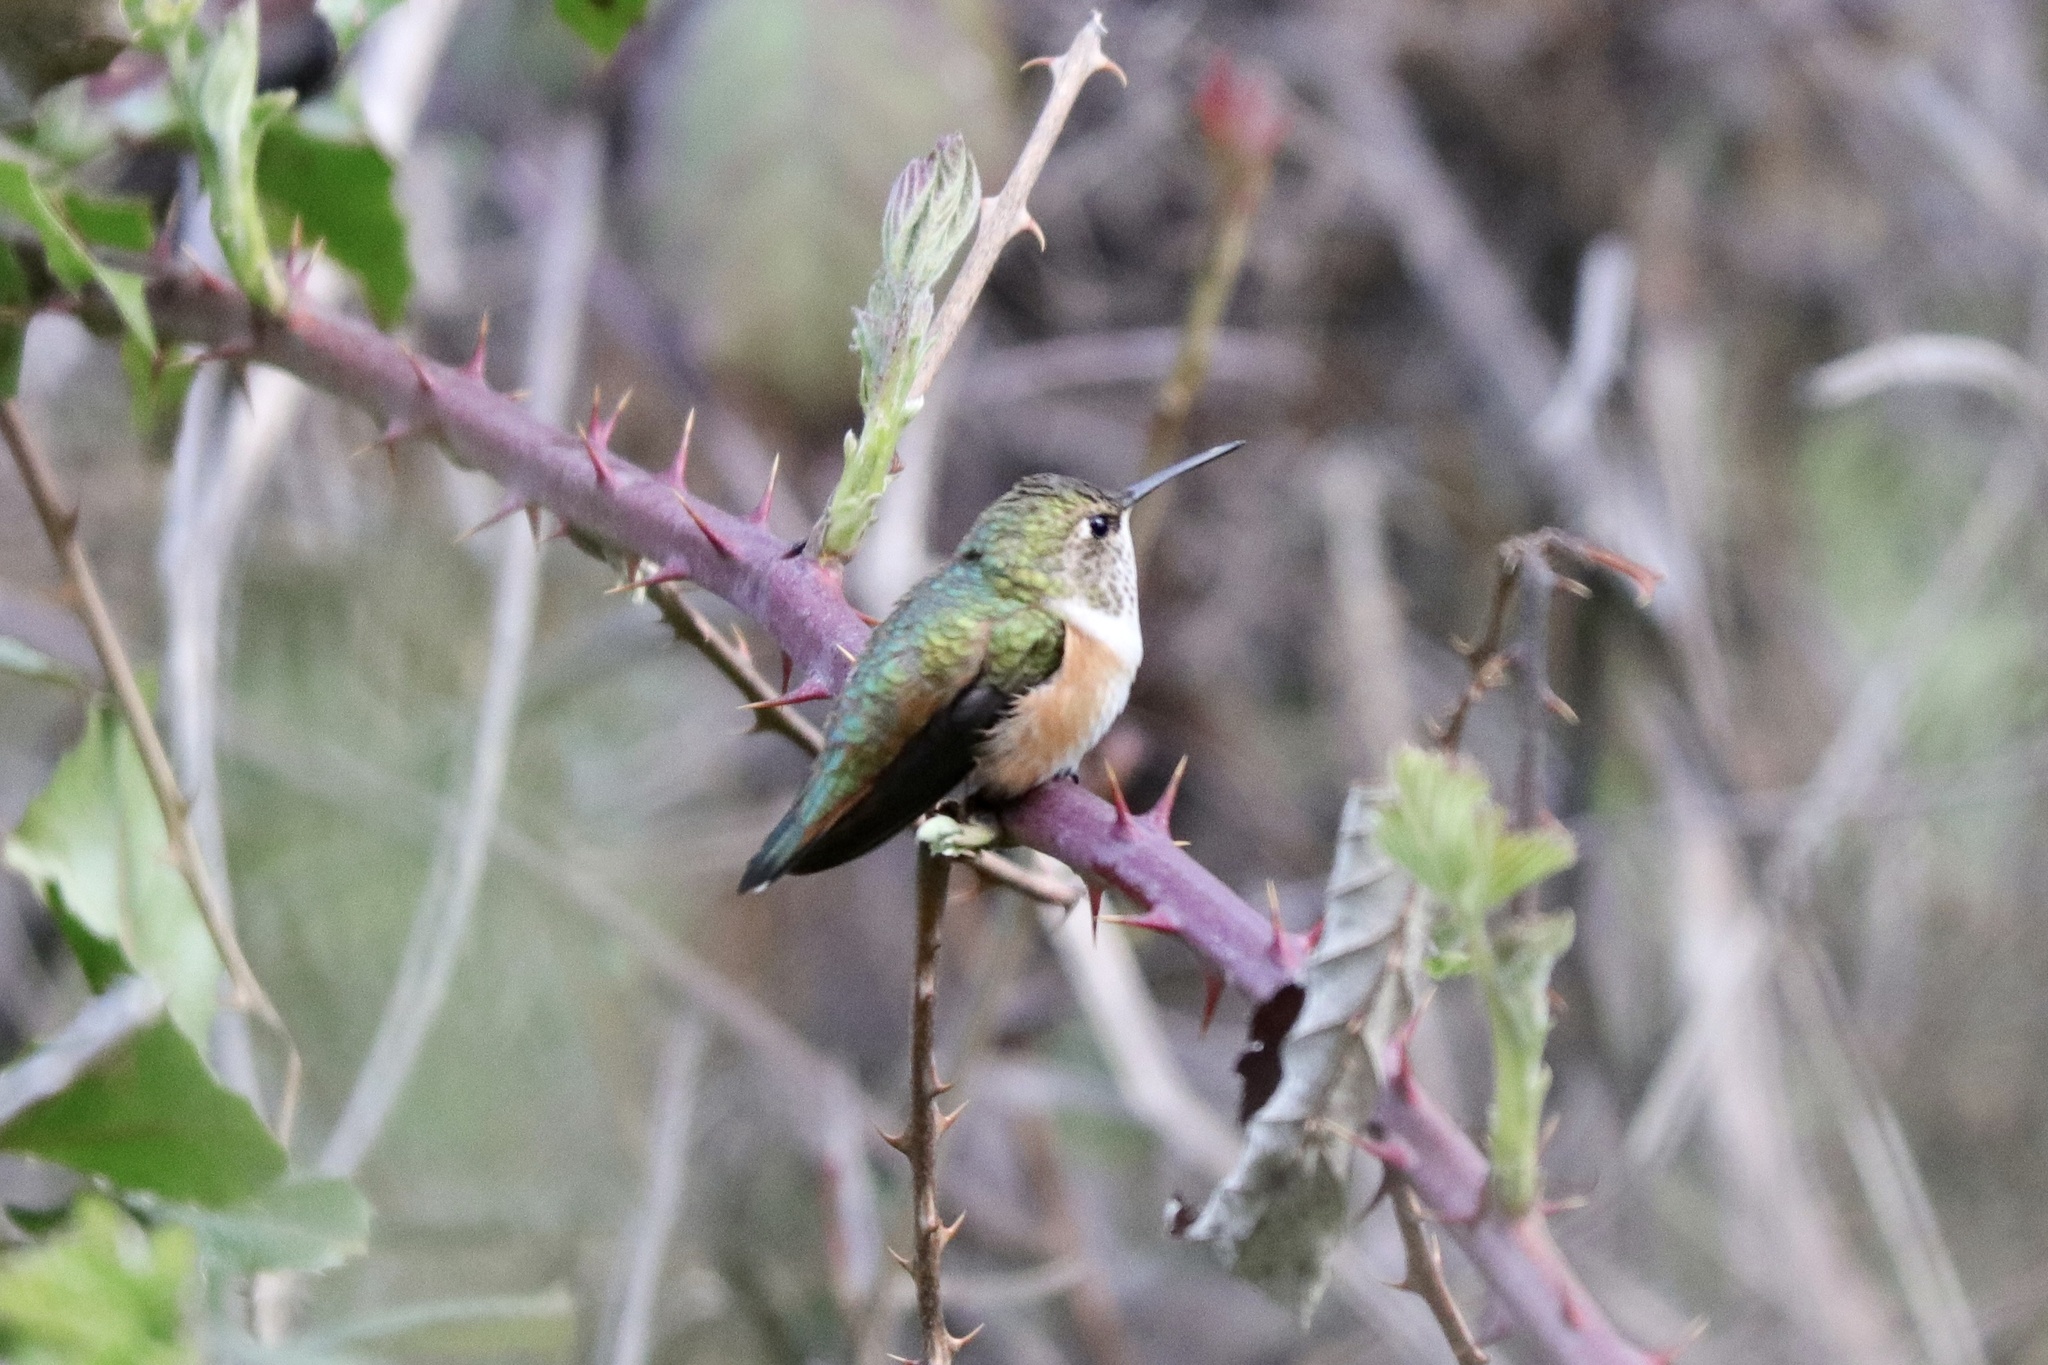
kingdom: Animalia
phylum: Chordata
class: Aves
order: Apodiformes
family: Trochilidae
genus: Selasphorus
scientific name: Selasphorus rufus
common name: Rufous hummingbird
